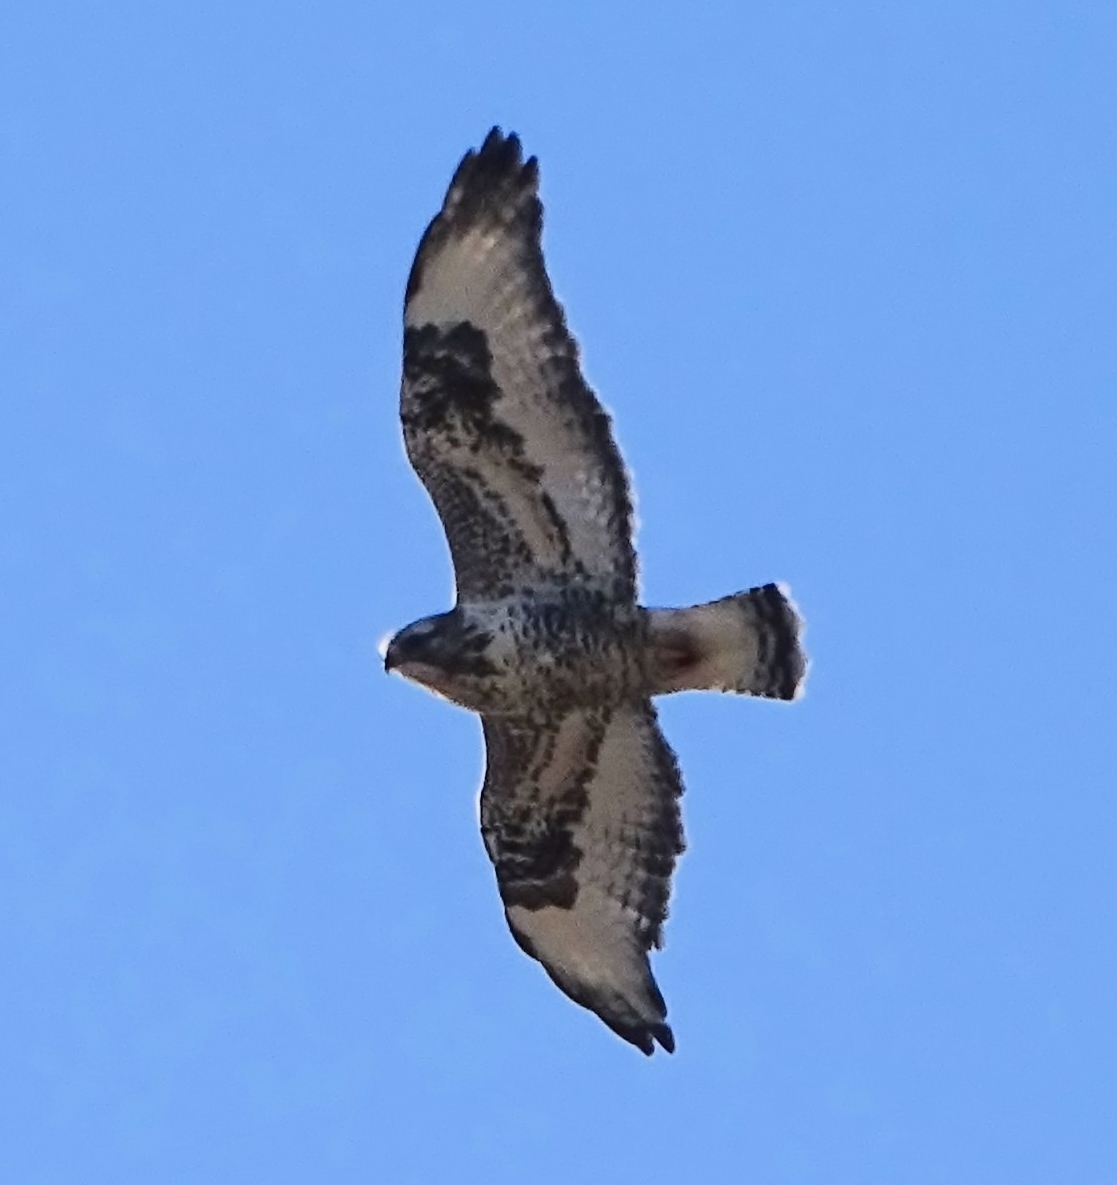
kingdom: Animalia
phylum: Chordata
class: Aves
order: Accipitriformes
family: Accipitridae
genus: Buteo
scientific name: Buteo lagopus
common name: Rough-legged buzzard
